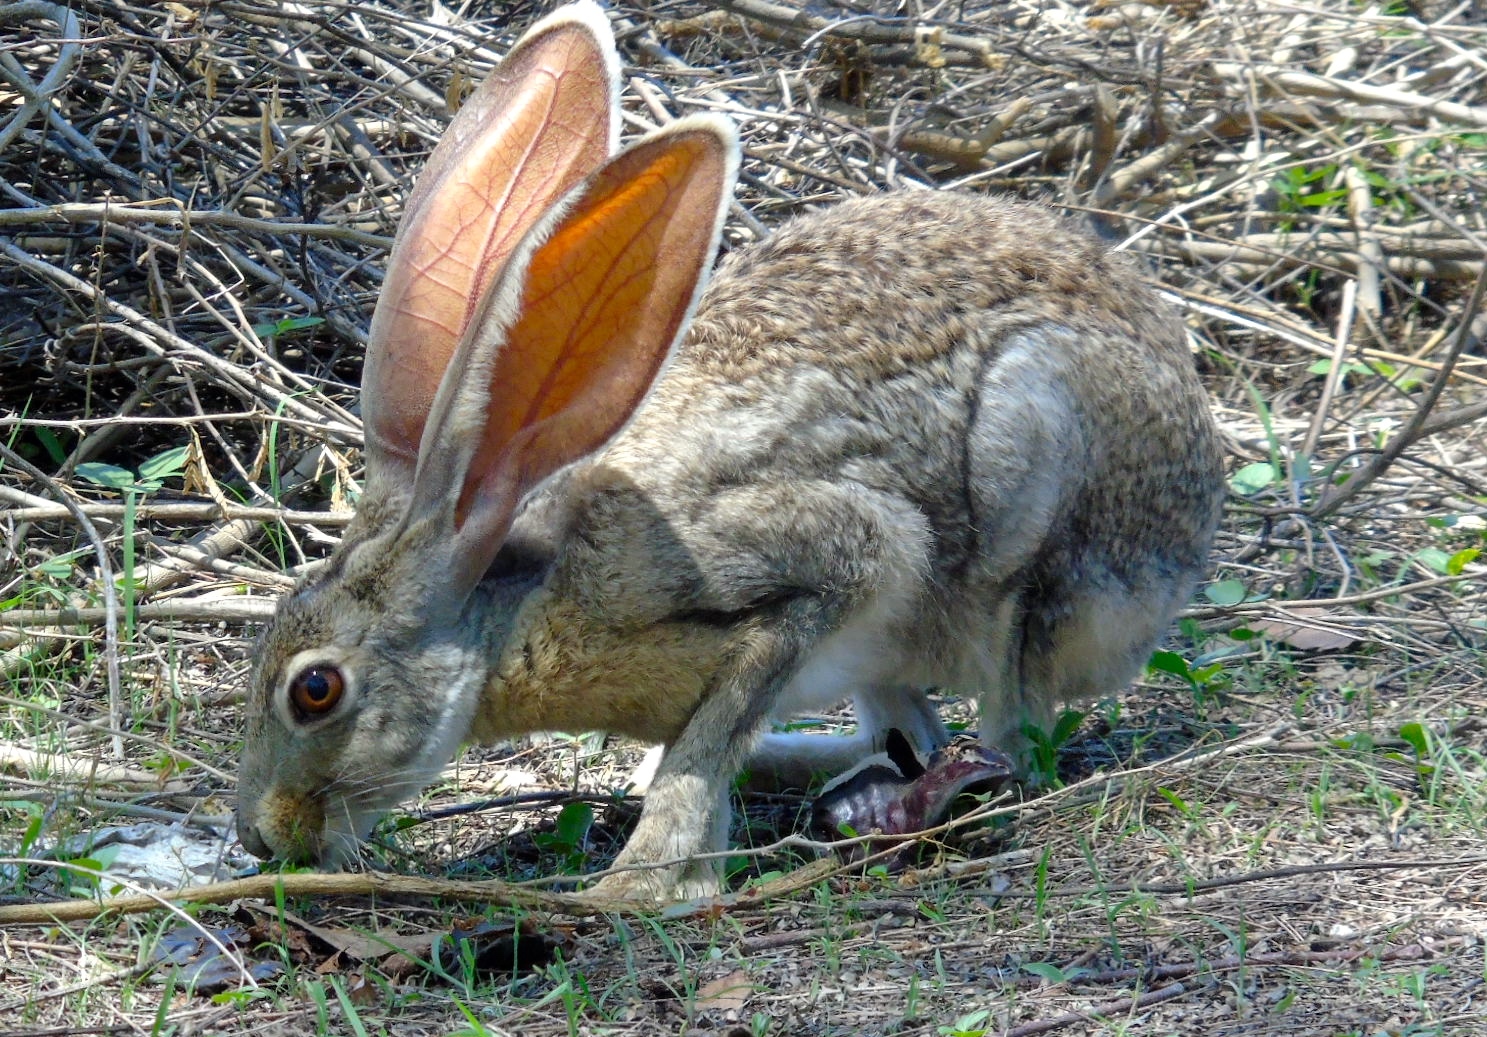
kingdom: Animalia
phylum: Chordata
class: Mammalia
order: Lagomorpha
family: Leporidae
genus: Lepus
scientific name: Lepus alleni
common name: Antelope jackrabbit
